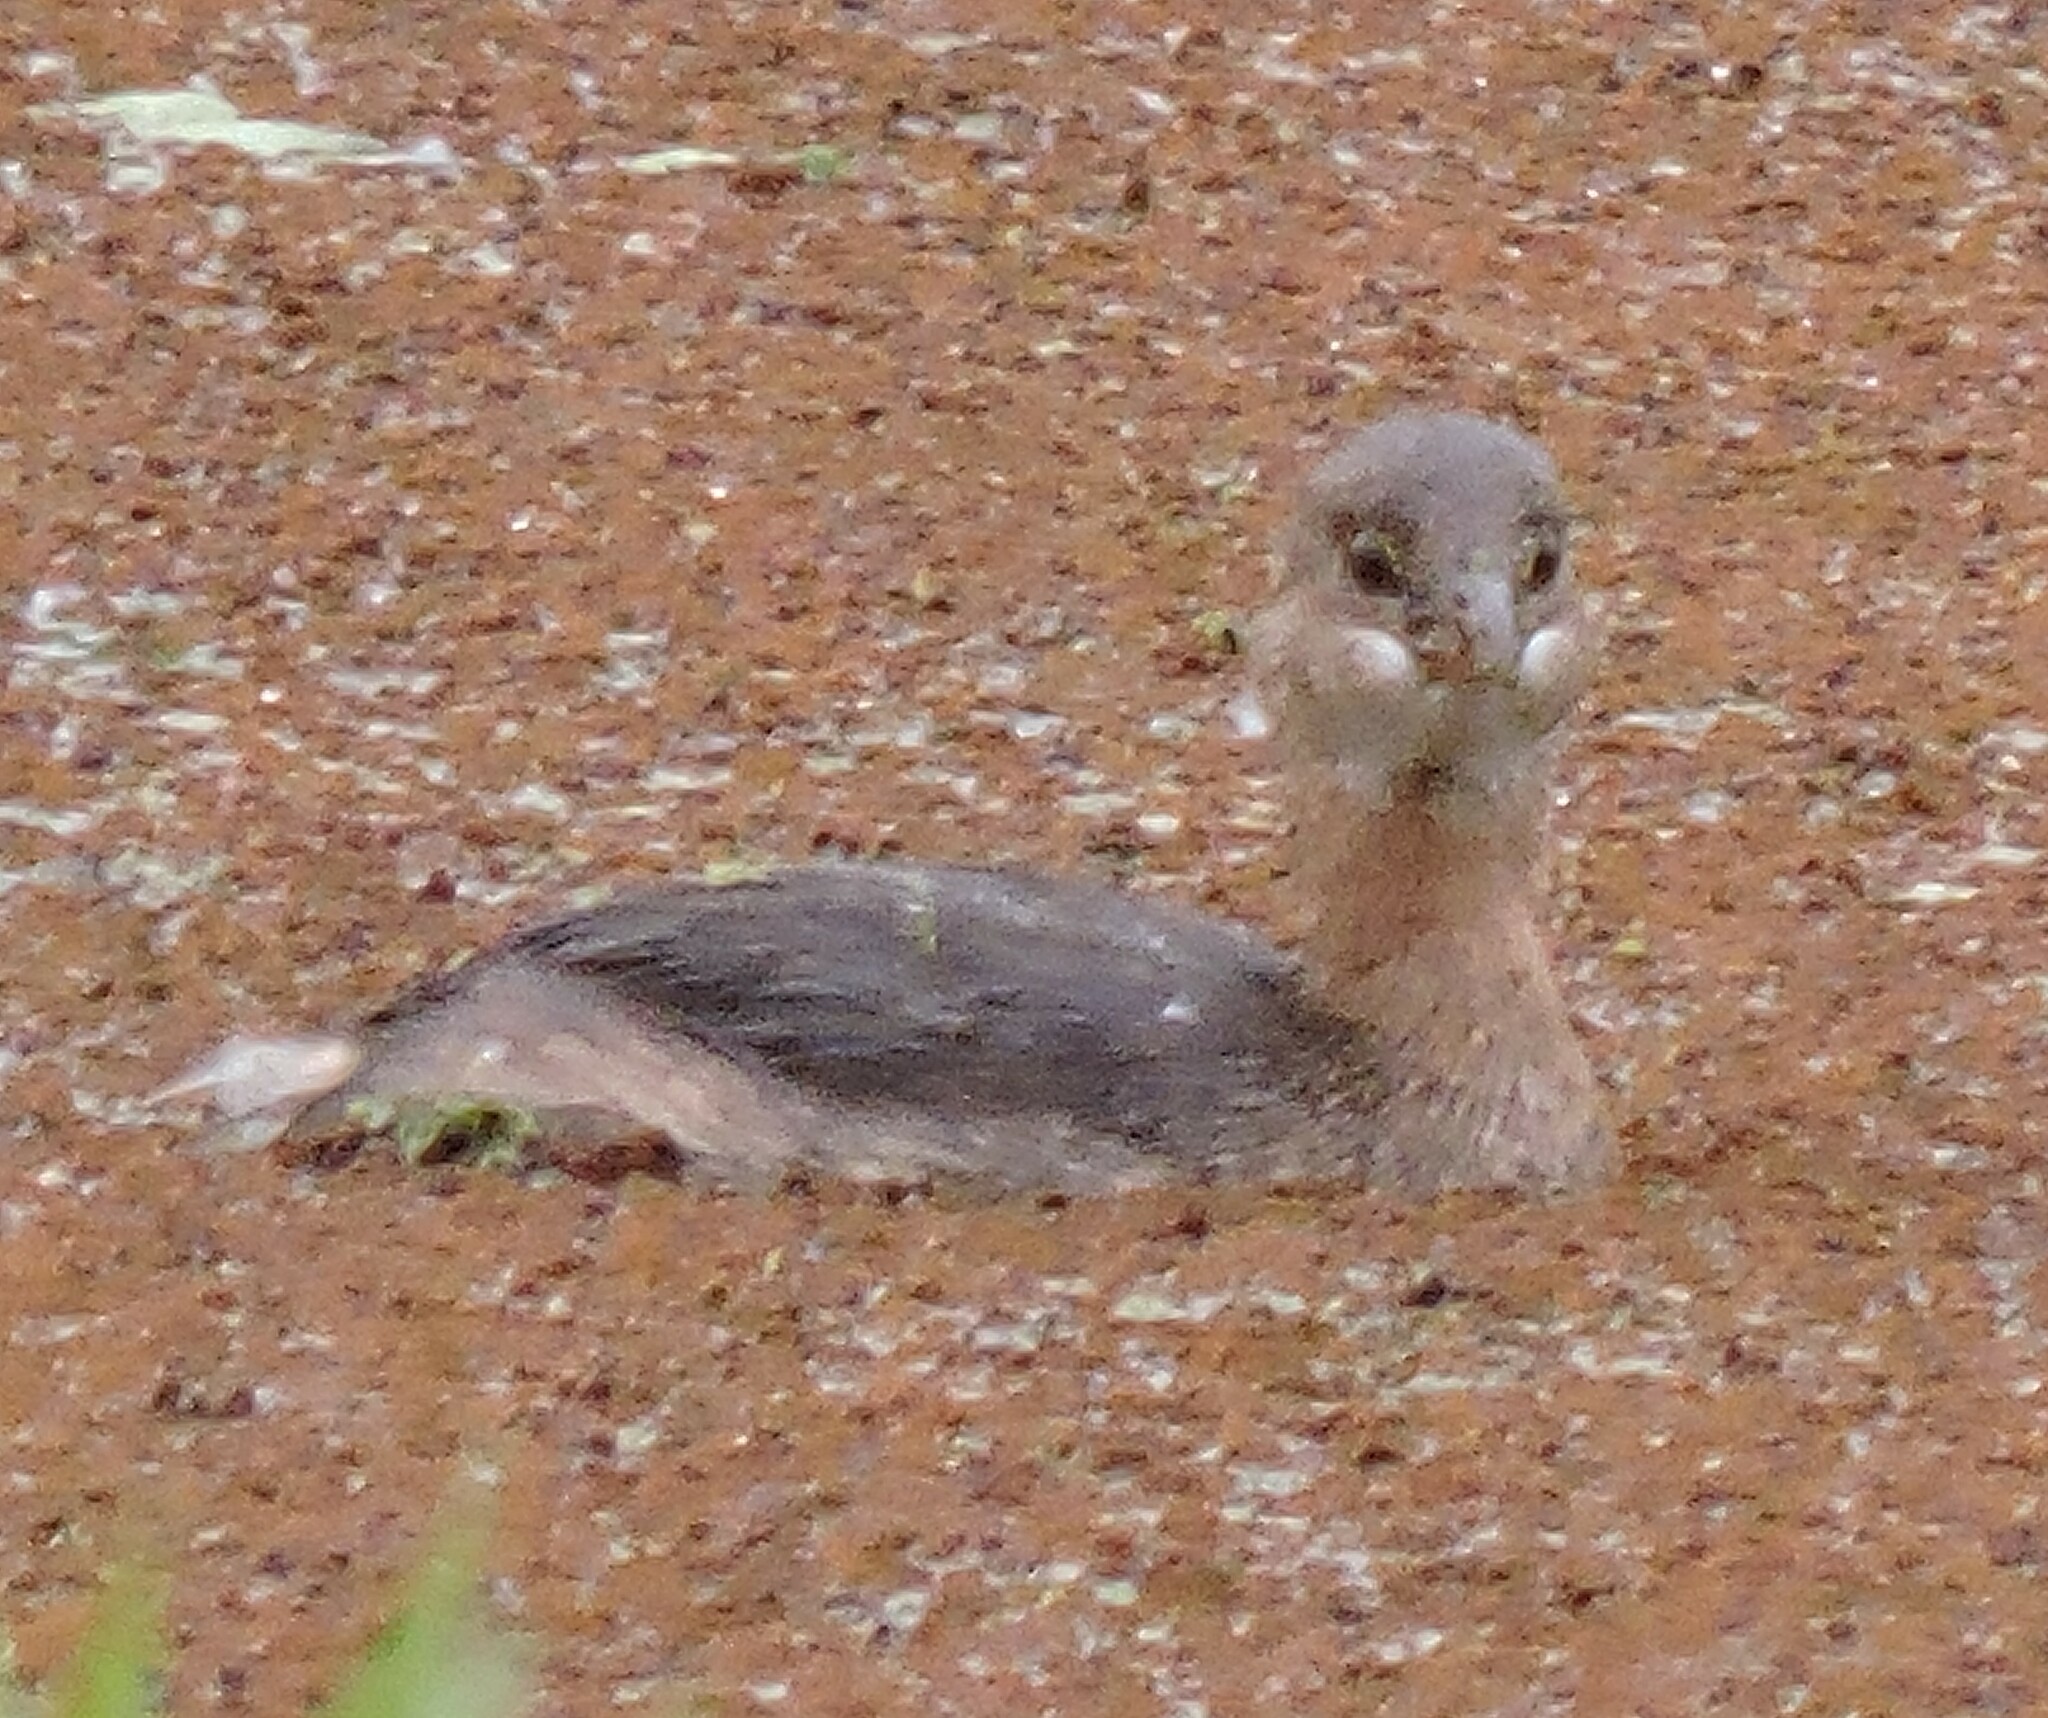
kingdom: Animalia
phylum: Chordata
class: Aves
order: Podicipediformes
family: Podicipedidae
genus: Podilymbus
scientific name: Podilymbus podiceps
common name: Pied-billed grebe
